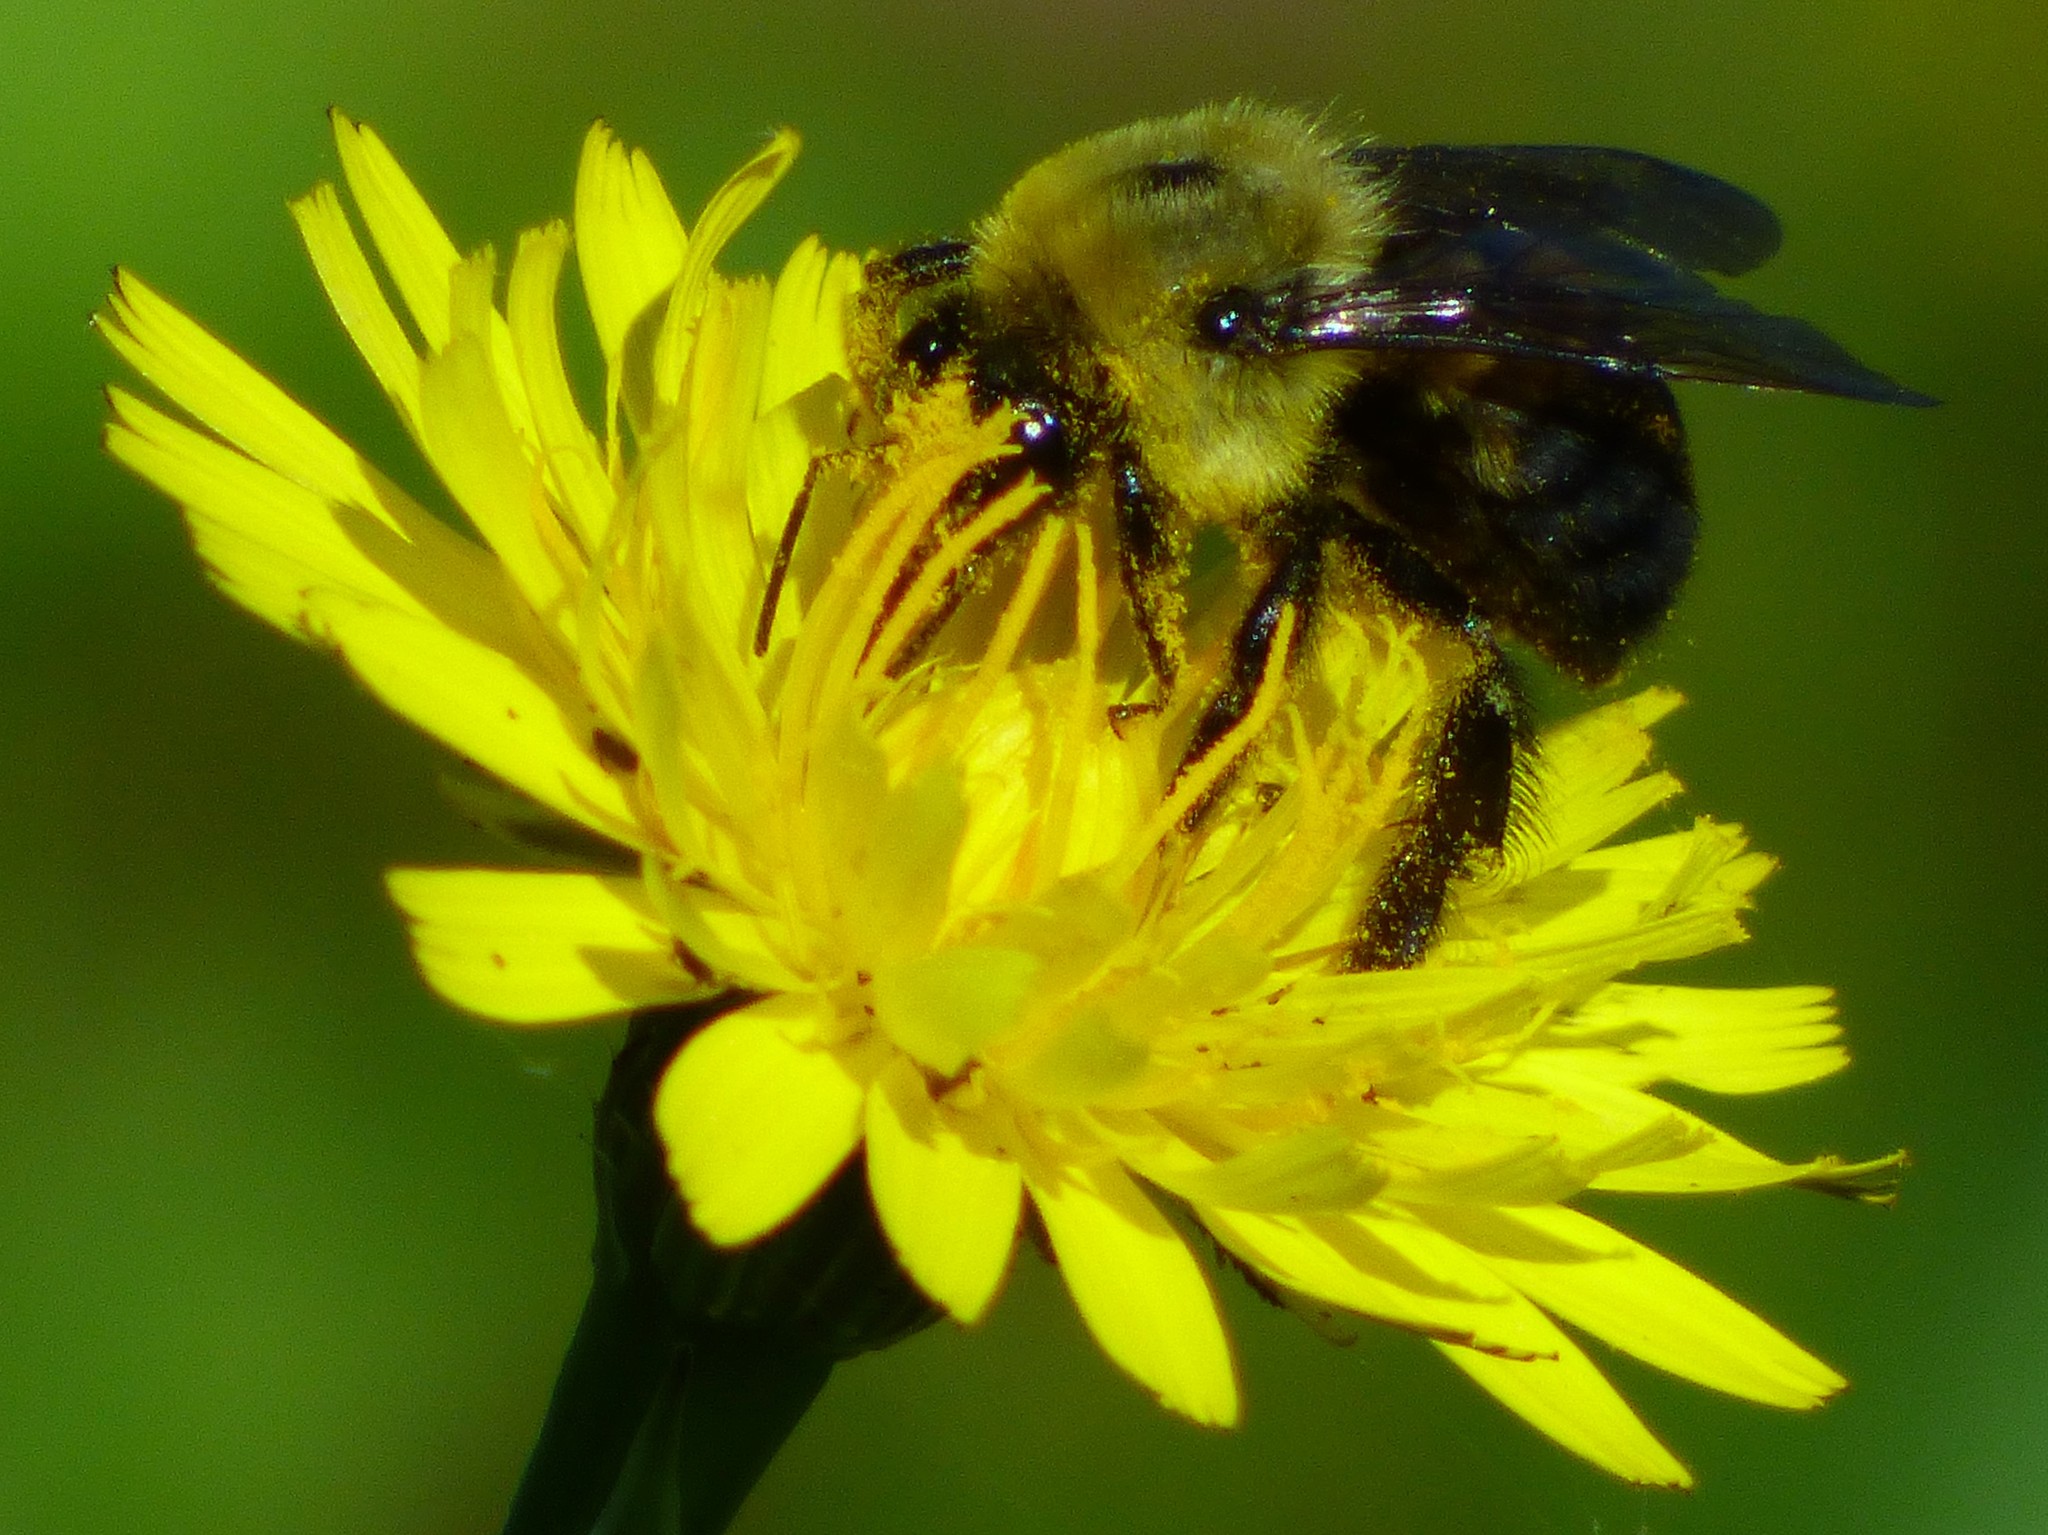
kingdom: Animalia
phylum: Arthropoda
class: Insecta
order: Hymenoptera
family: Apidae
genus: Bombus
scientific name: Bombus griseocollis
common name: Brown-belted bumble bee
